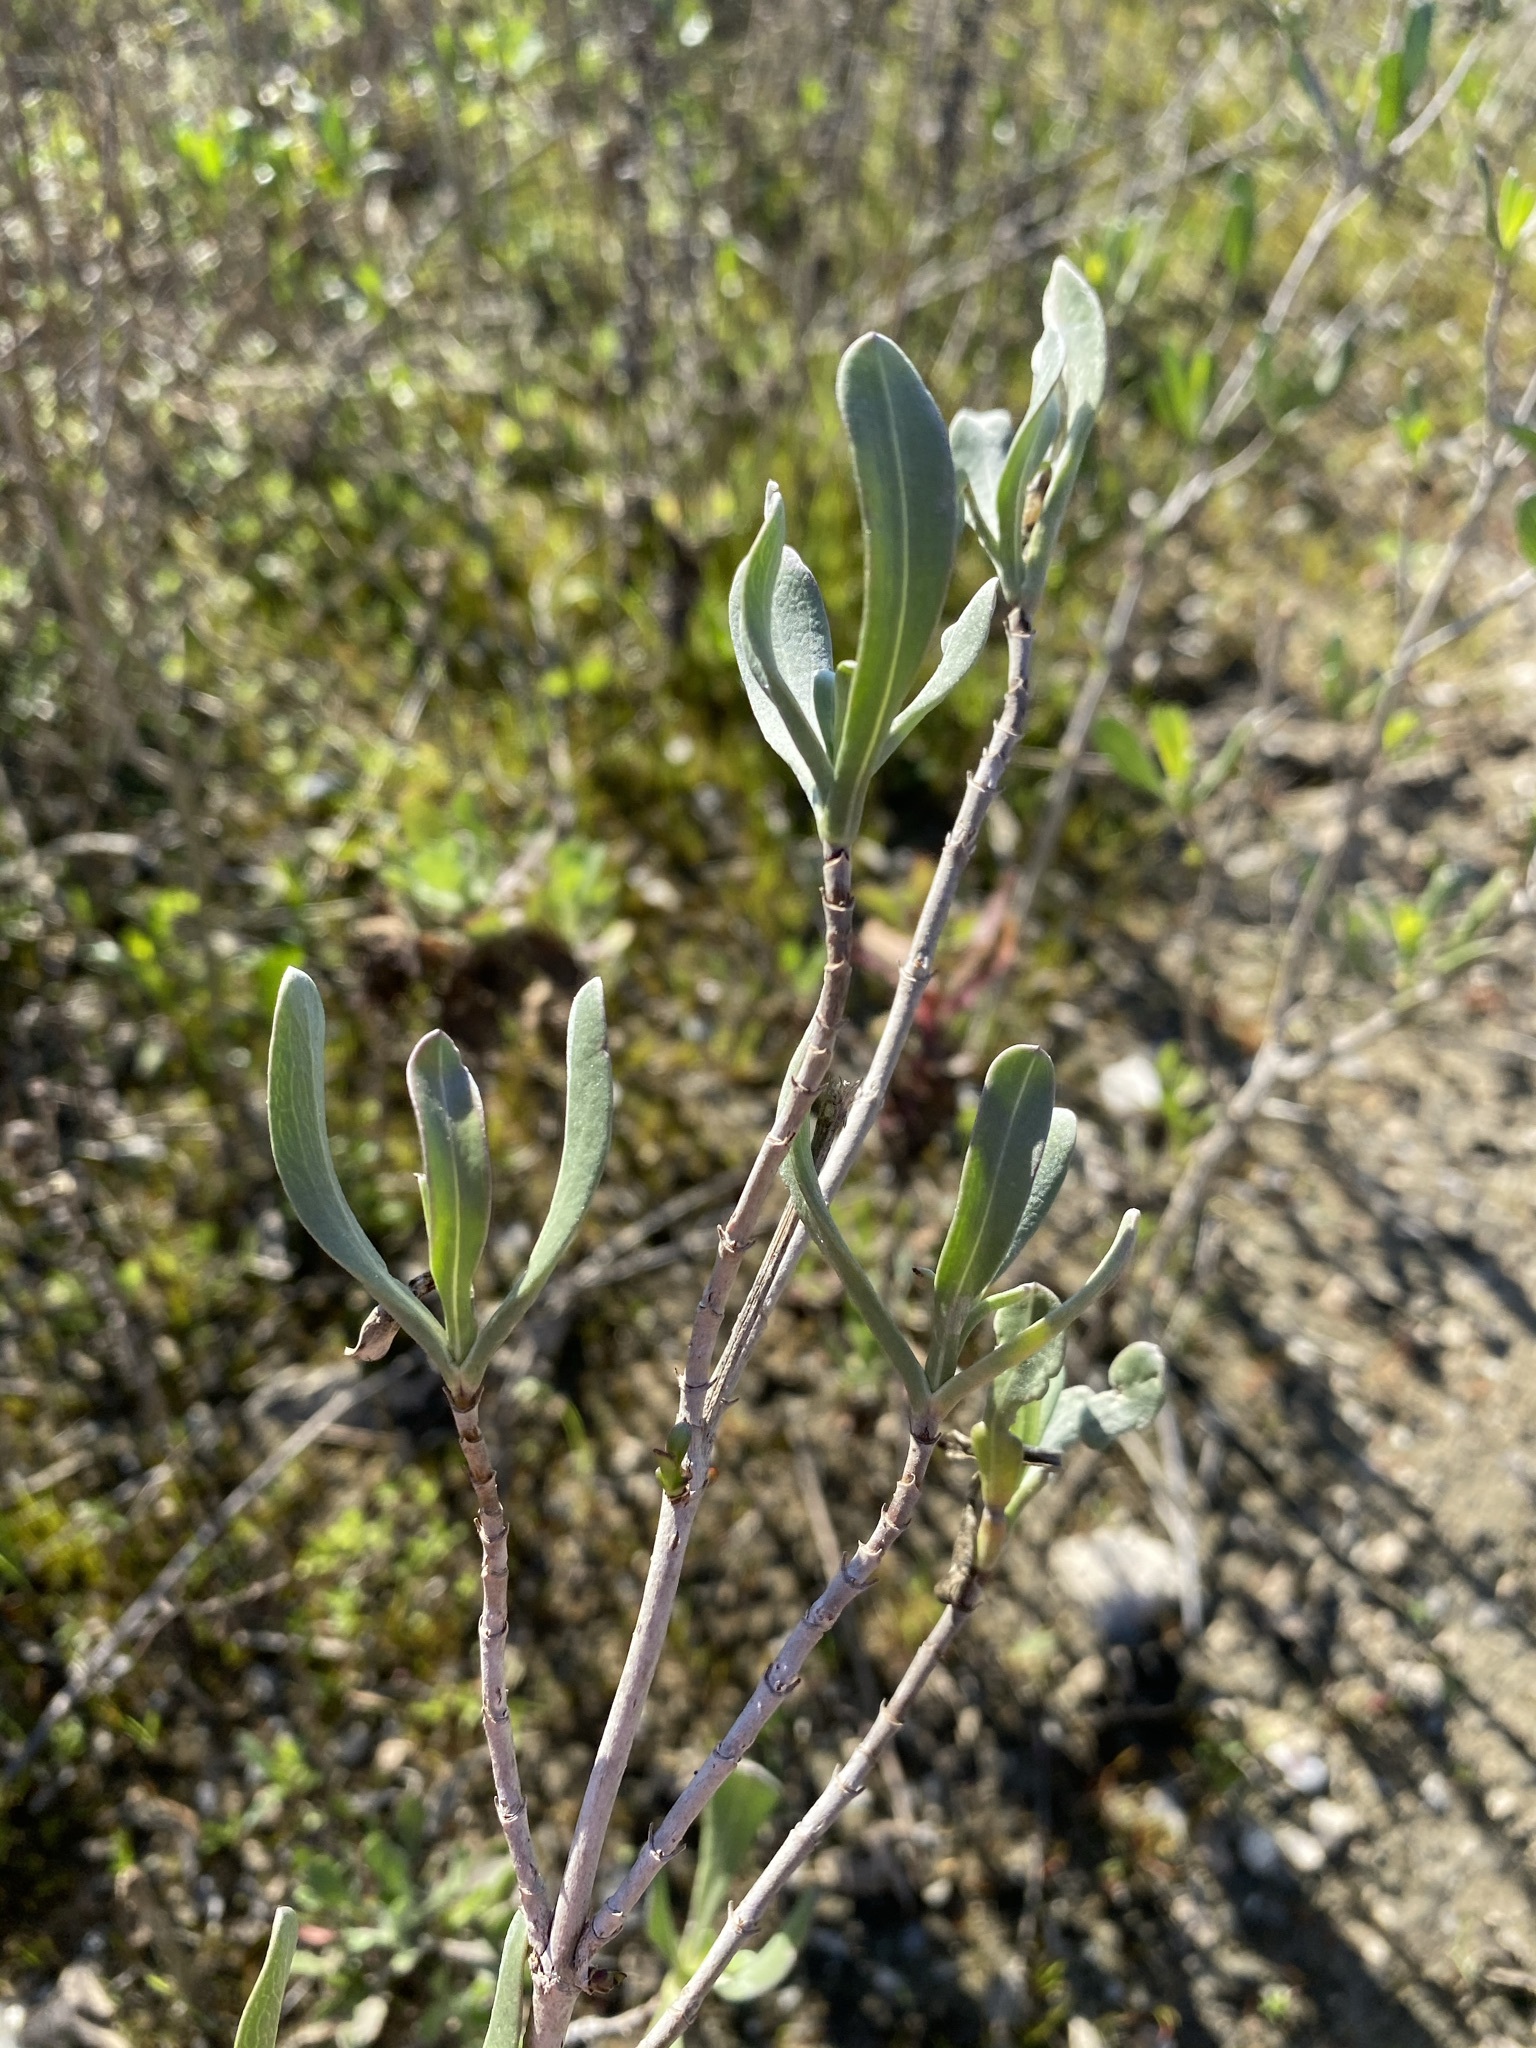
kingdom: Plantae
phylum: Tracheophyta
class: Magnoliopsida
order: Asterales
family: Asteraceae
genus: Borrichia
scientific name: Borrichia frutescens
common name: Sea oxeye
